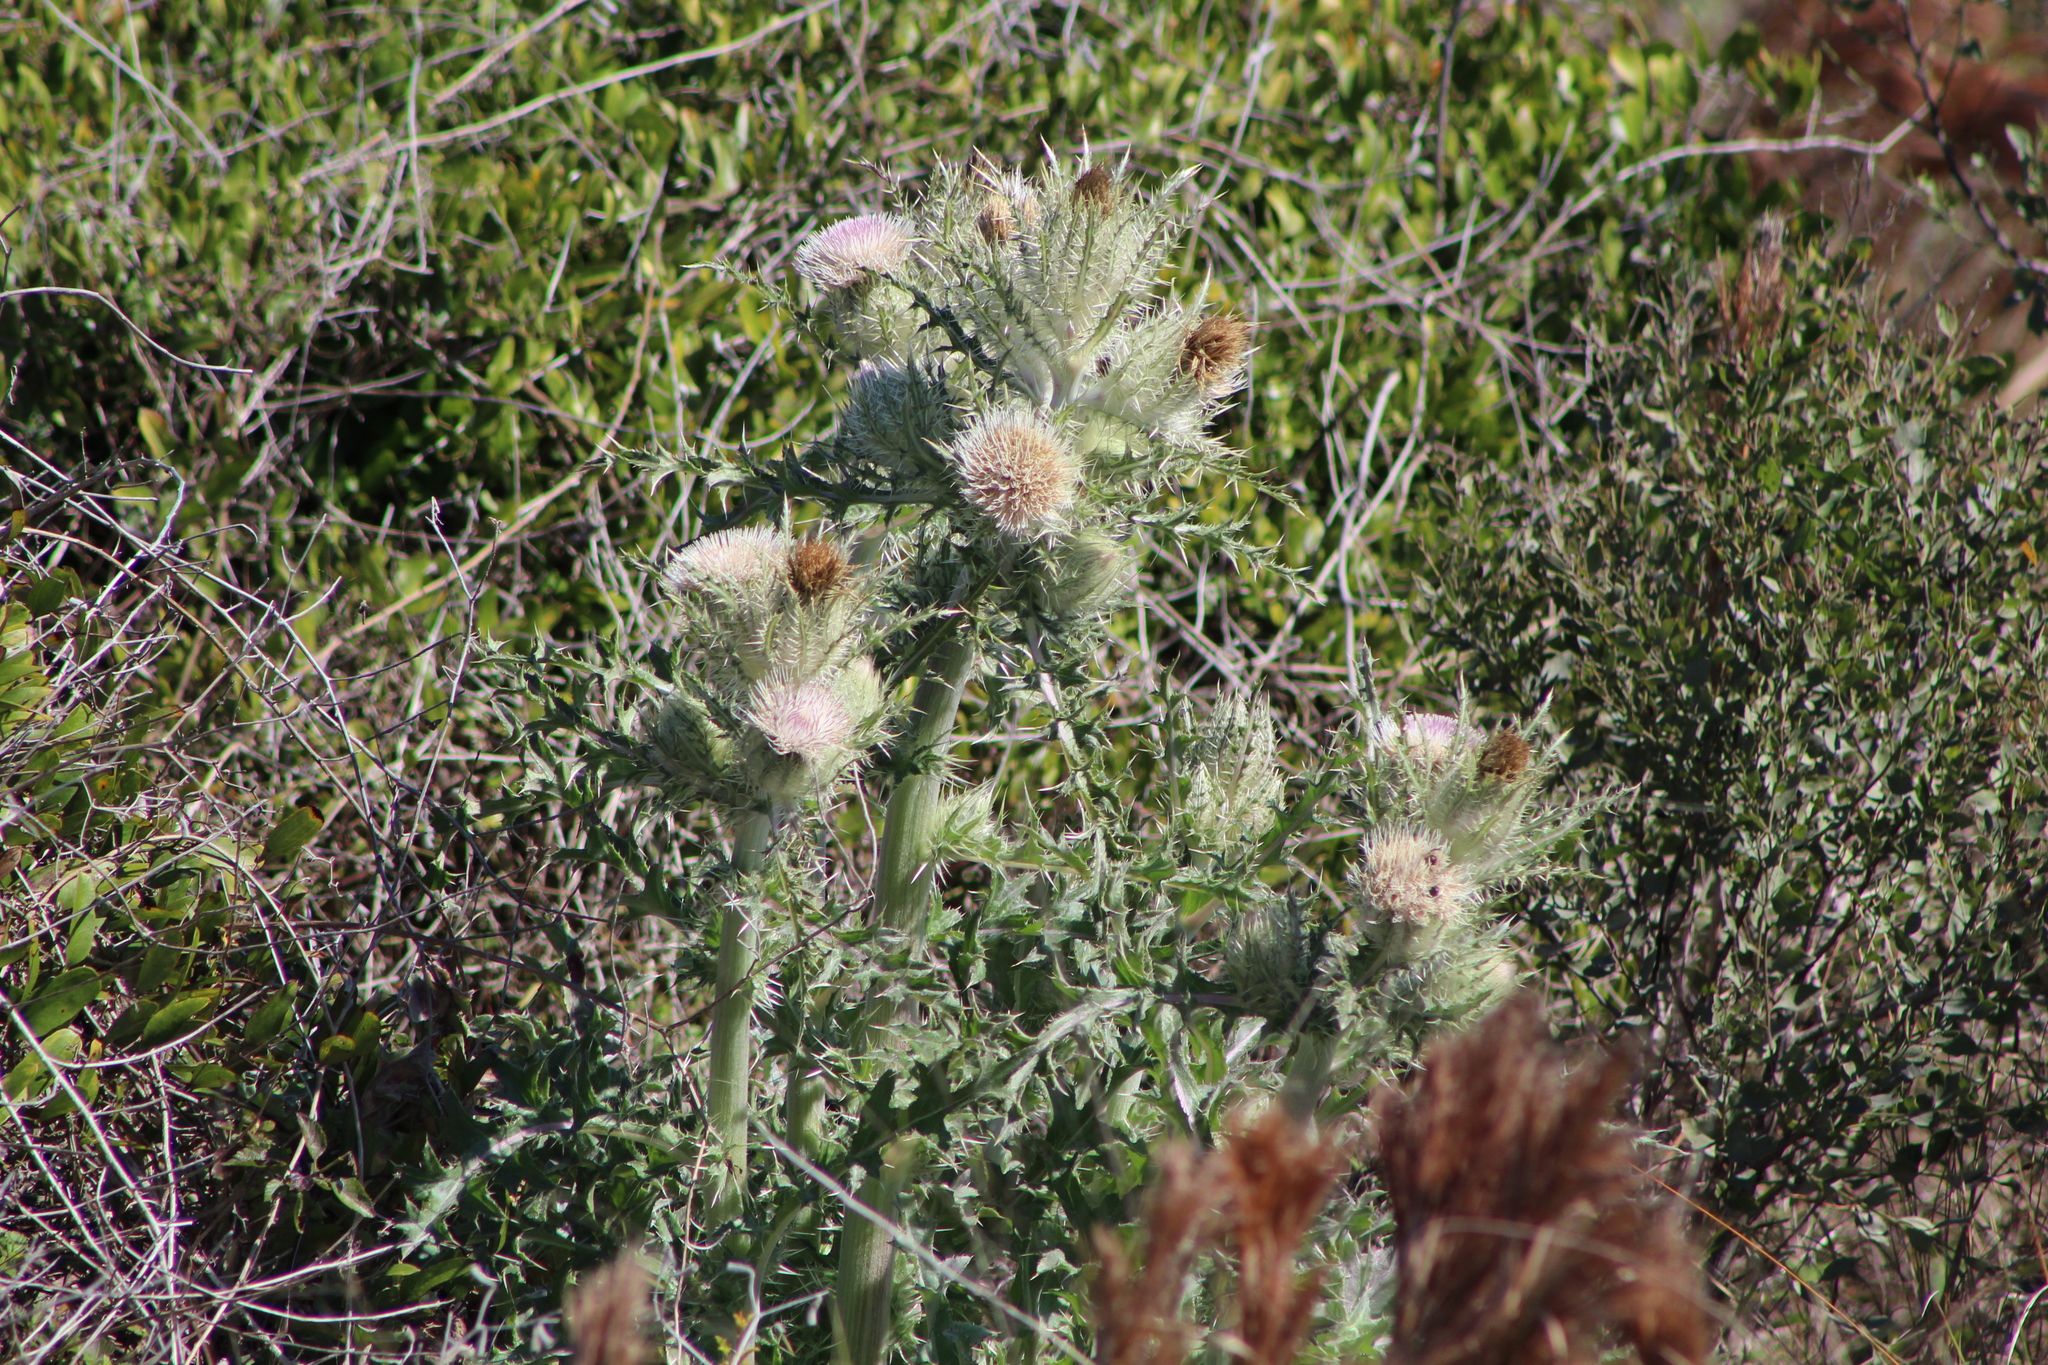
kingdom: Plantae
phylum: Tracheophyta
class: Magnoliopsida
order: Asterales
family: Asteraceae
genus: Cirsium
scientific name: Cirsium horridulum
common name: Bristly thistle
